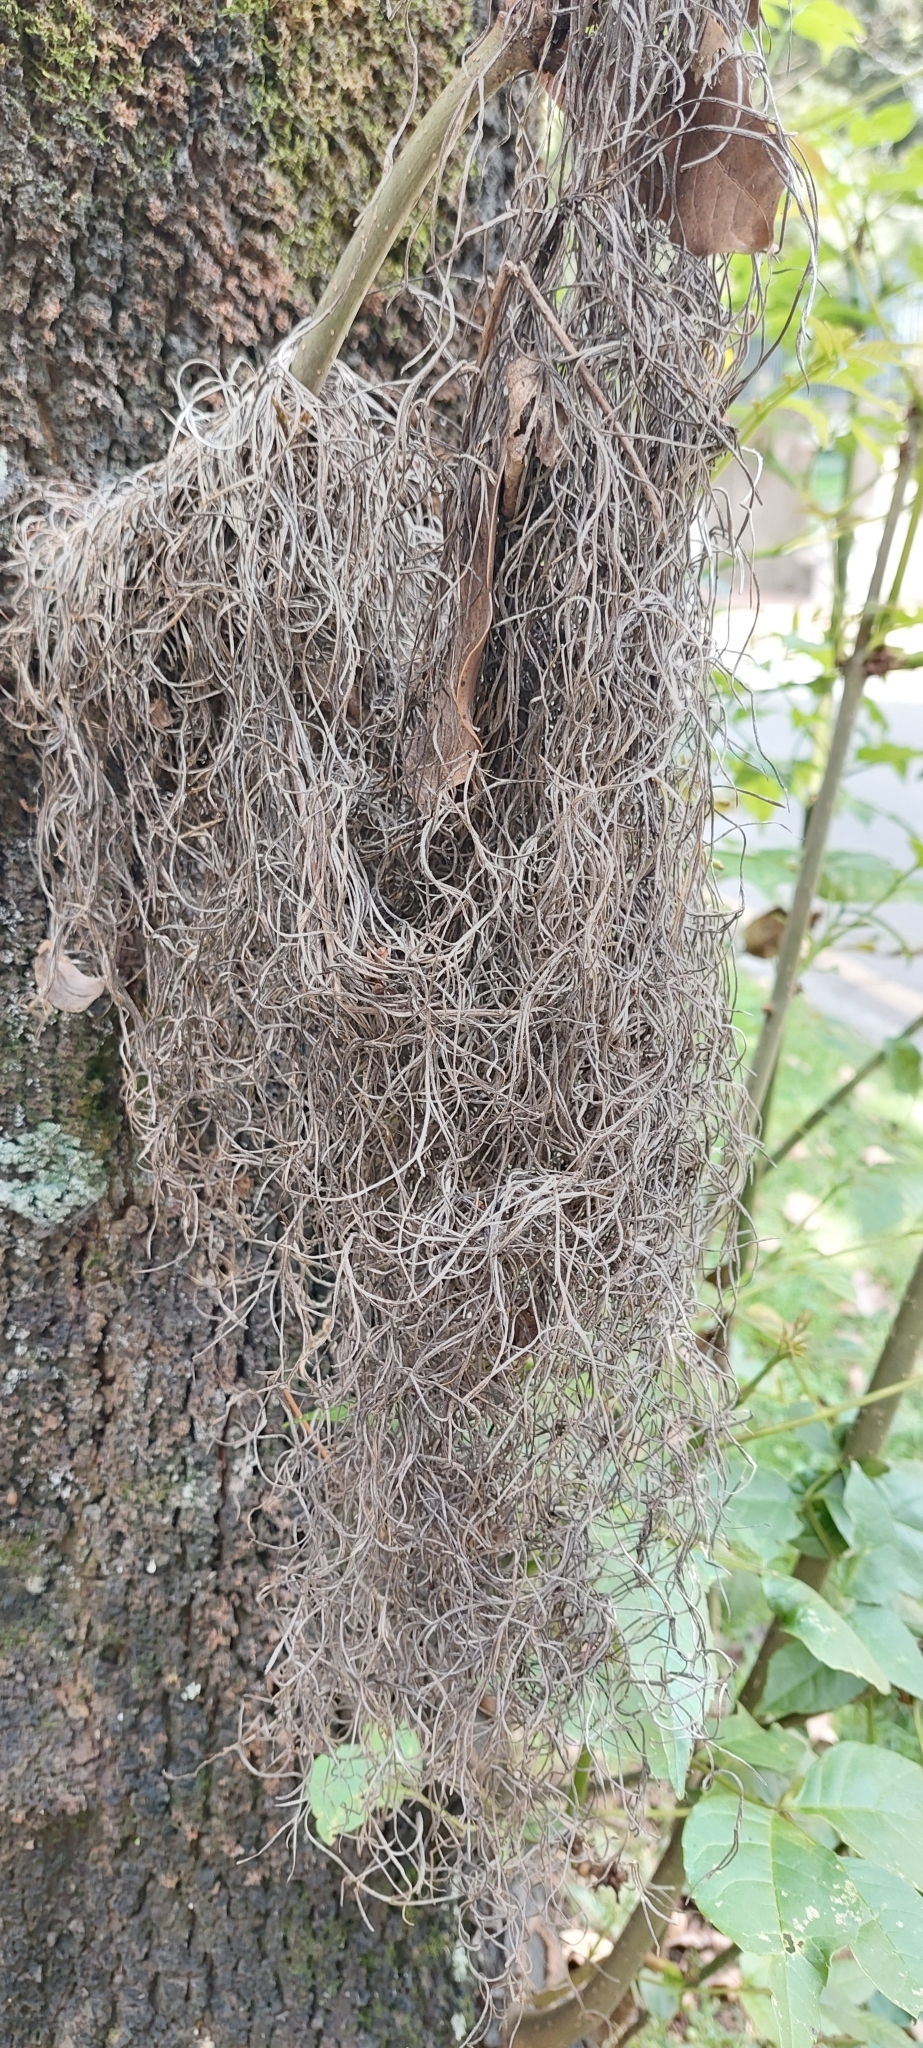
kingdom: Plantae
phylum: Tracheophyta
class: Liliopsida
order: Poales
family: Bromeliaceae
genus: Tillandsia
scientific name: Tillandsia usneoides
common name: Spanish moss
